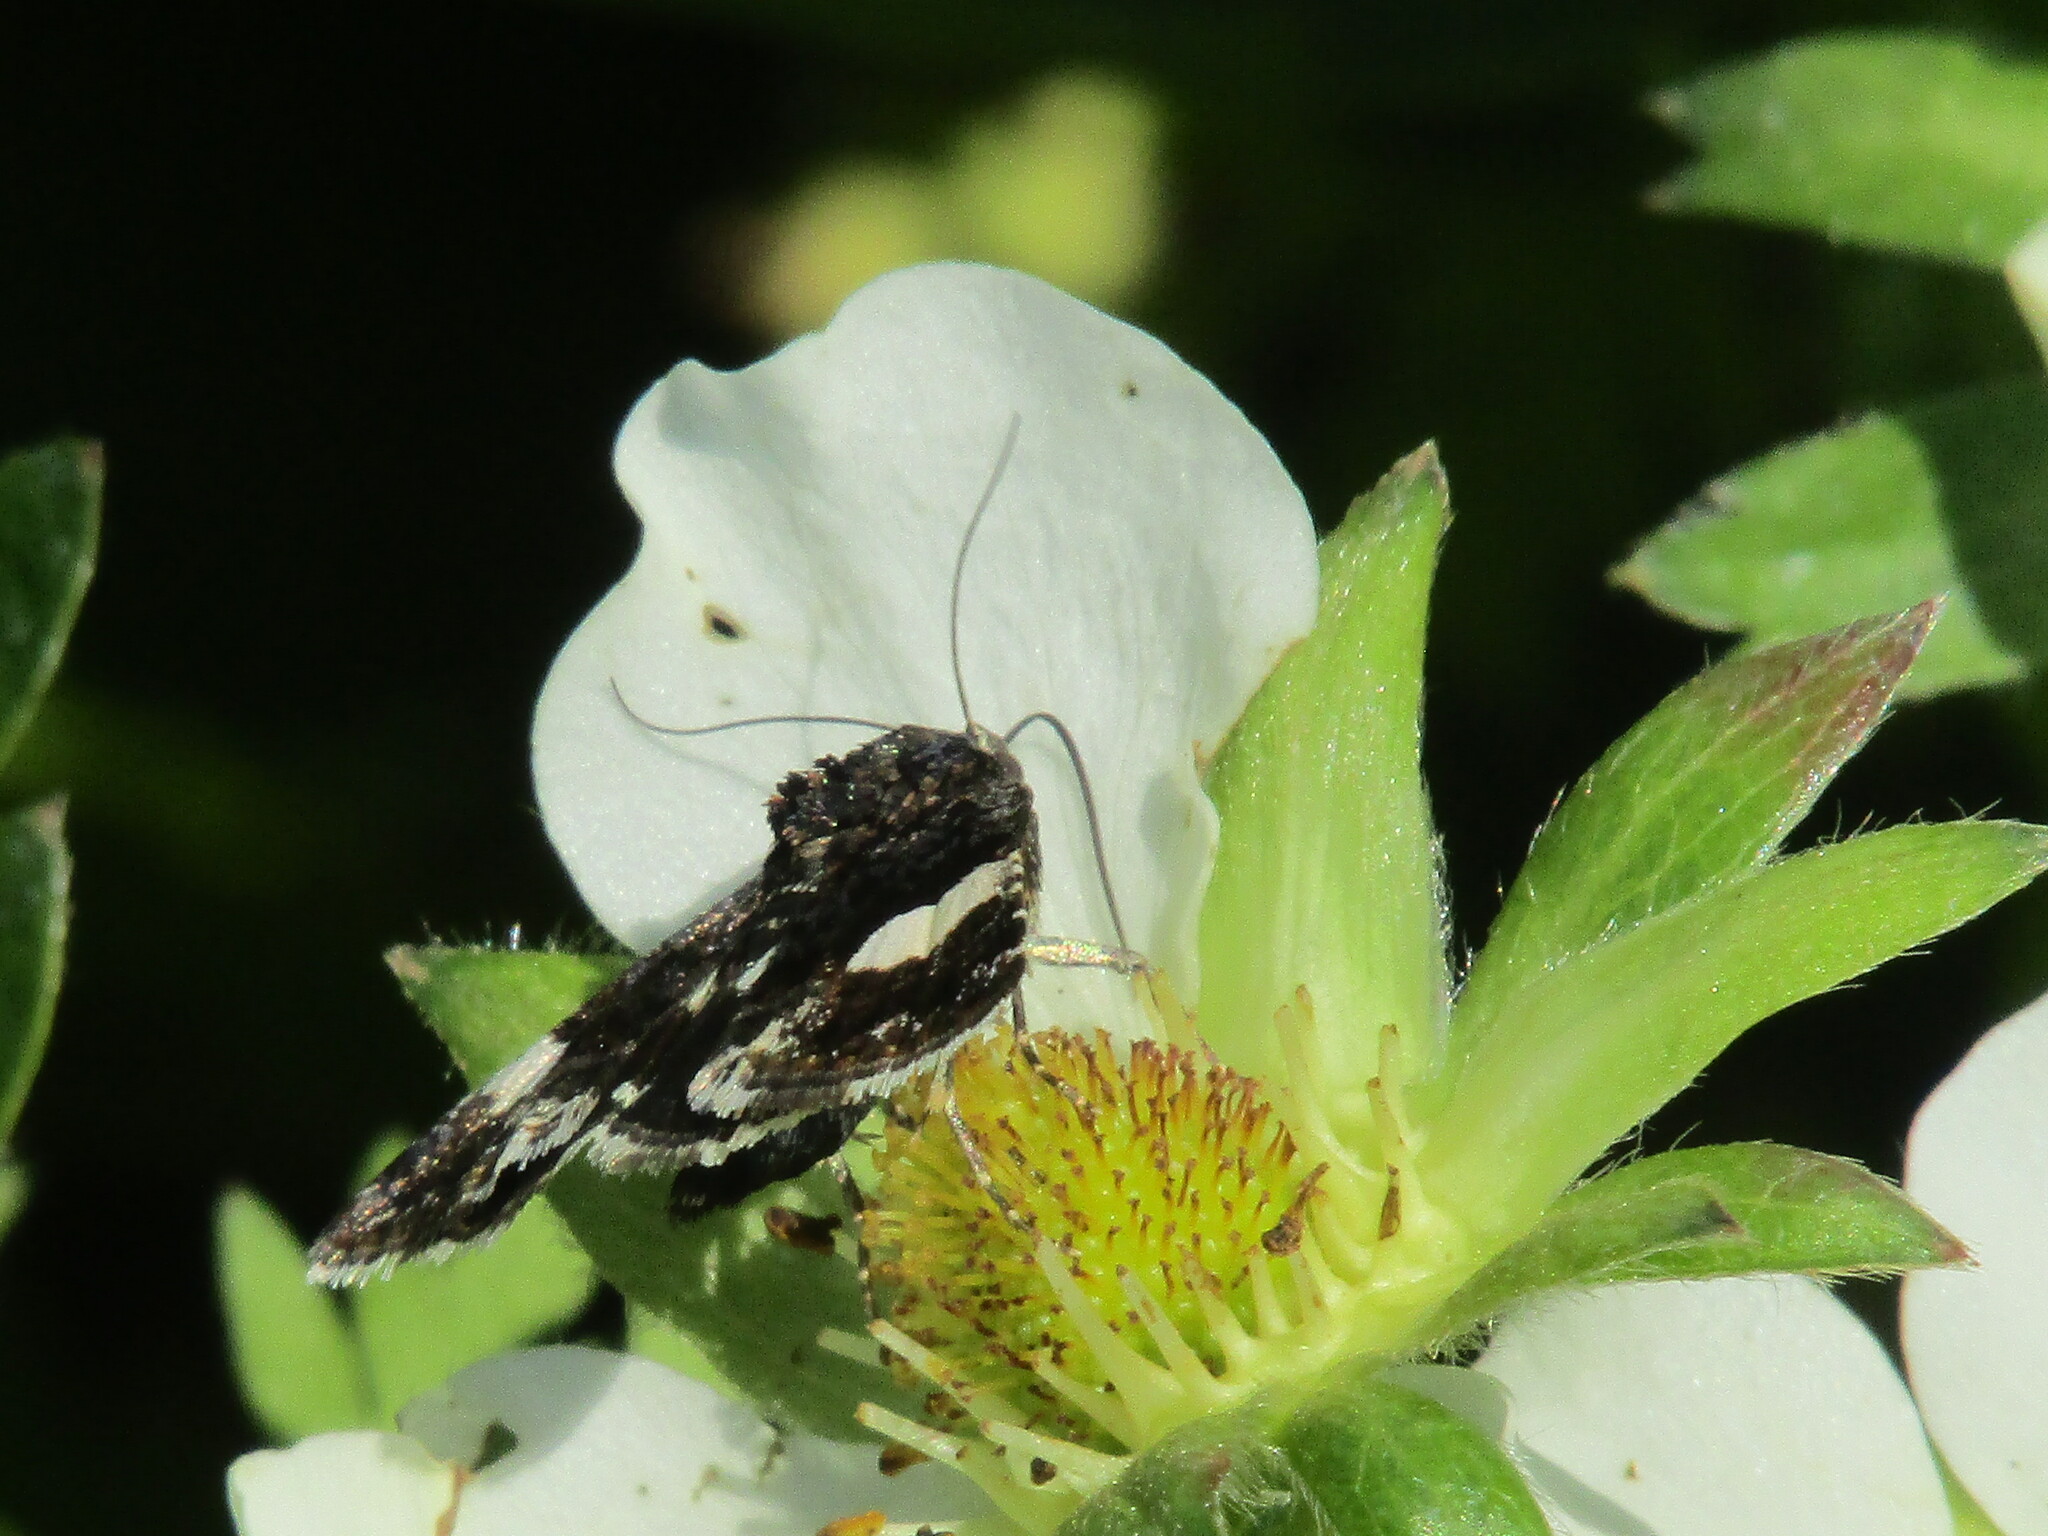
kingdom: Animalia
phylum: Arthropoda
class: Insecta
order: Lepidoptera
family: Erebidae
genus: Tyta
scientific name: Tyta luctuosa
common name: Four-spotted
